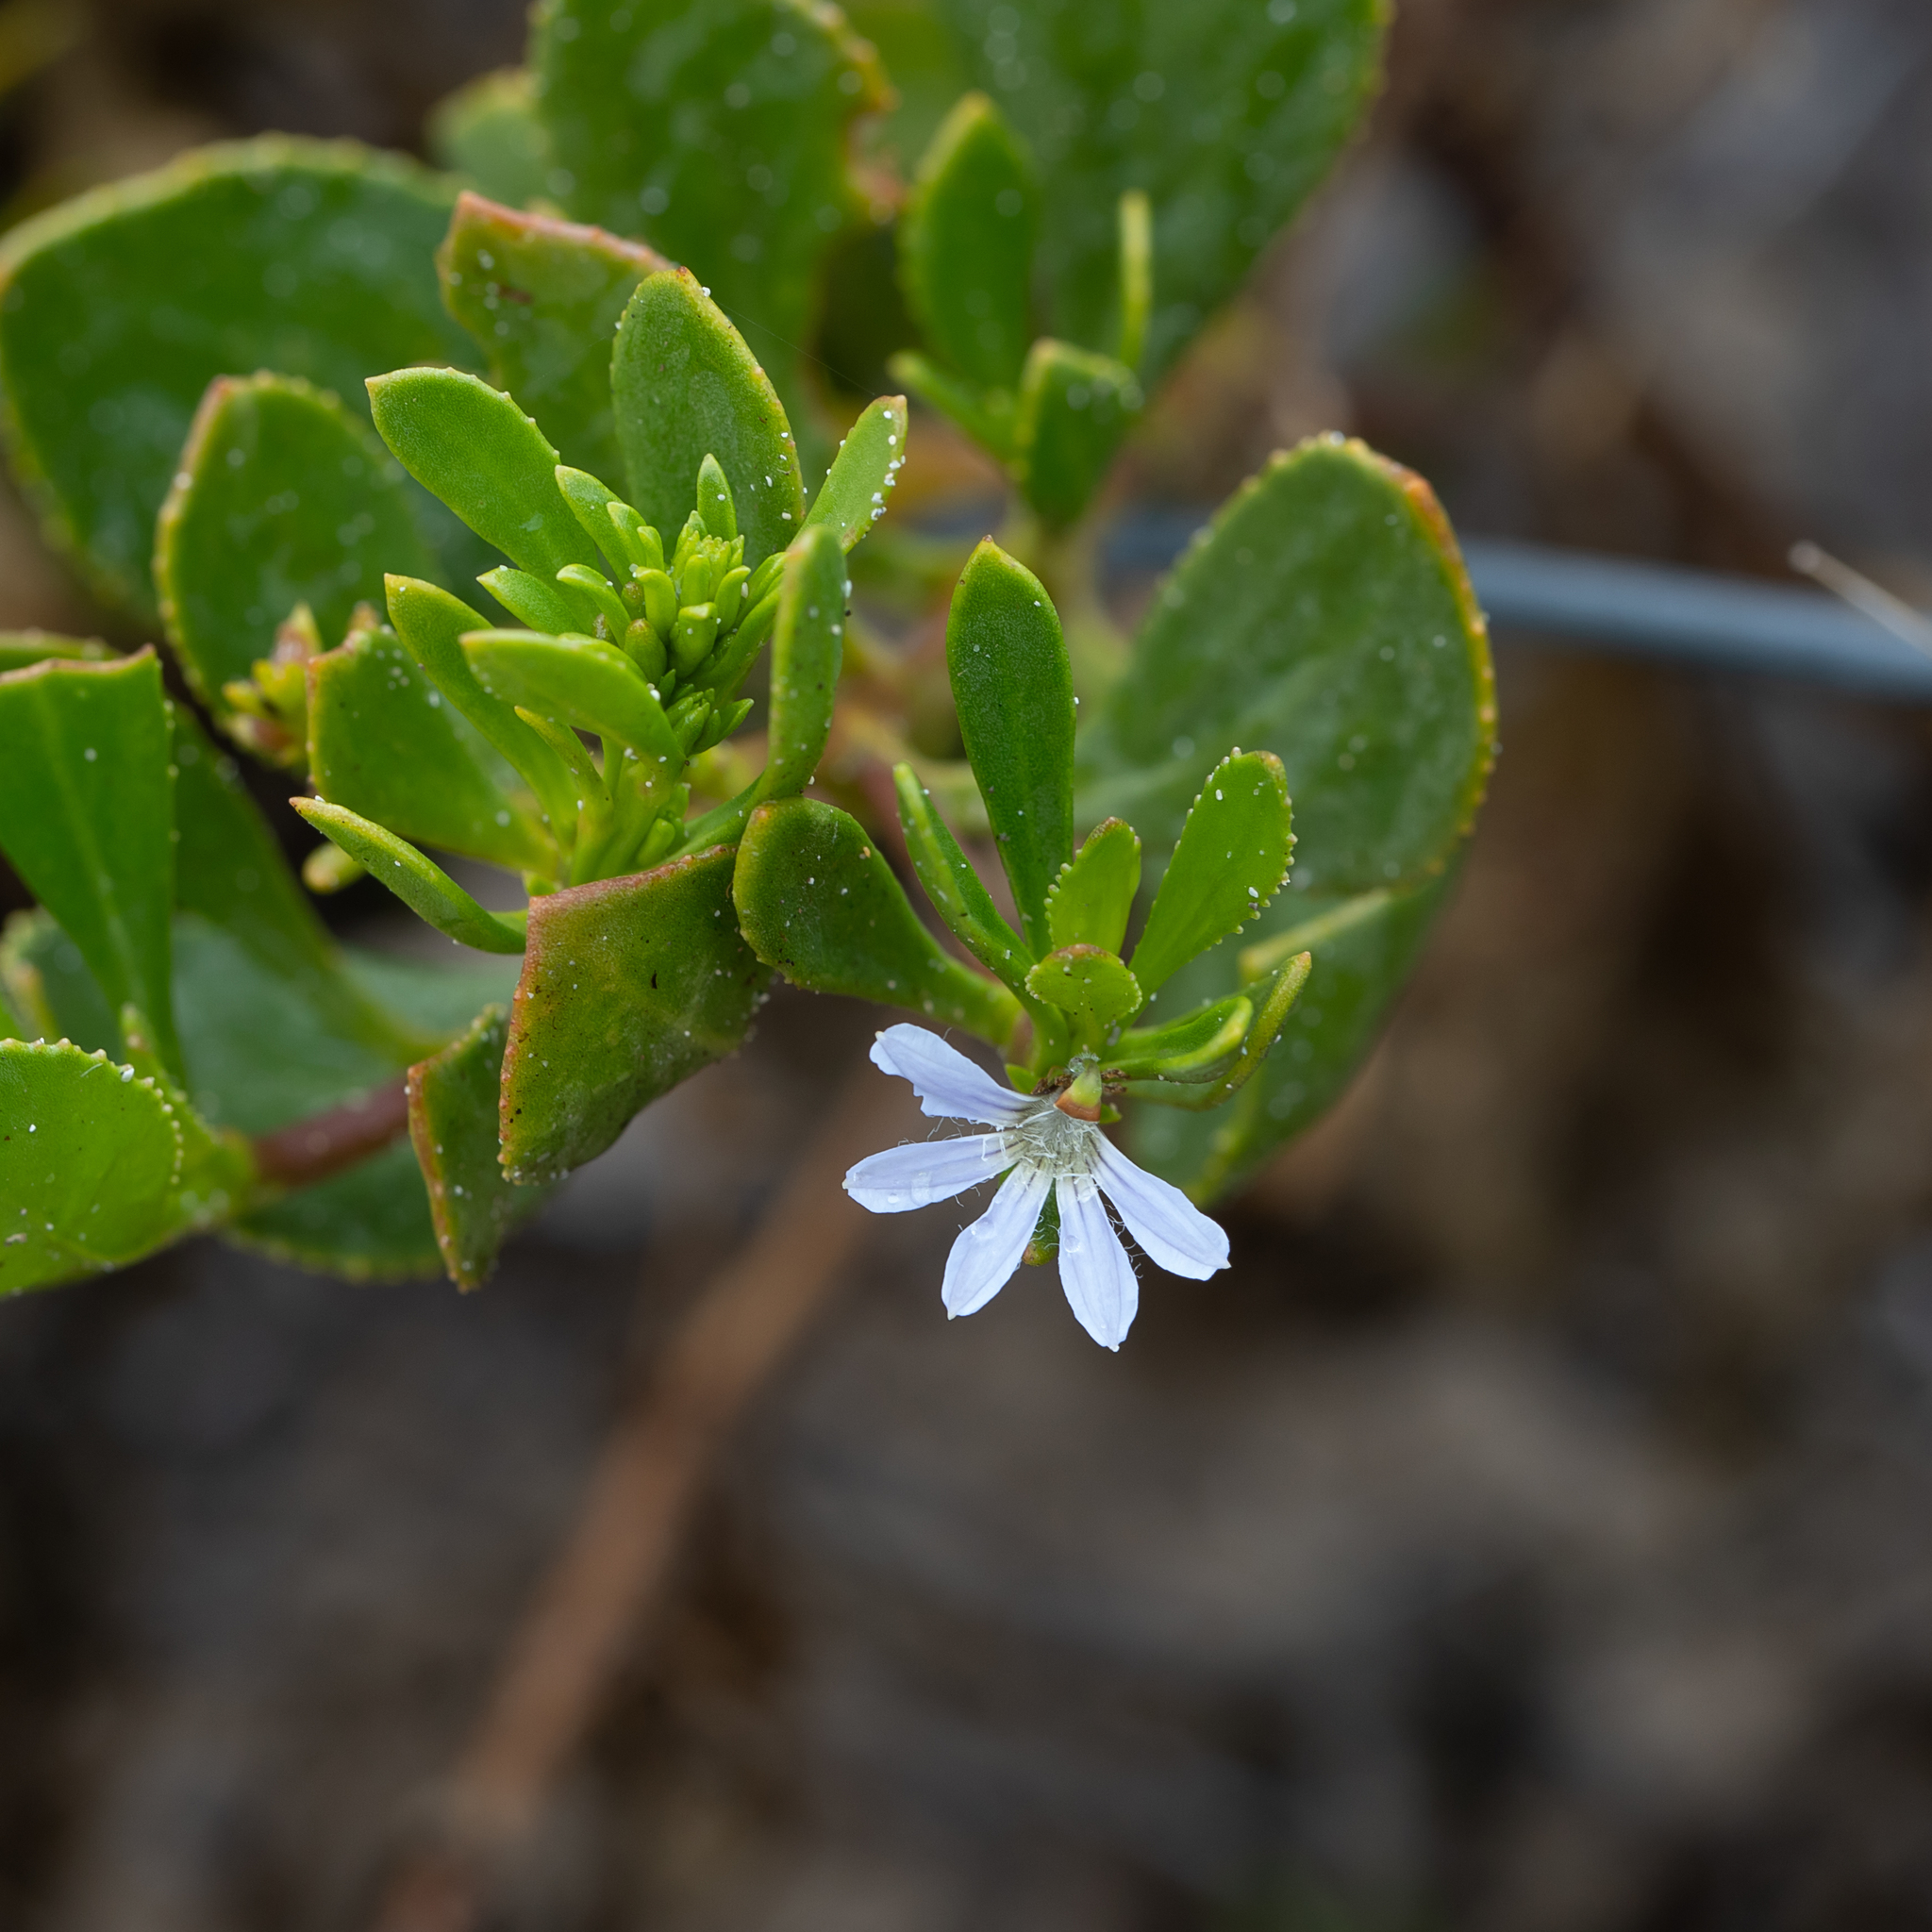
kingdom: Plantae
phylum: Tracheophyta
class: Magnoliopsida
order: Asterales
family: Goodeniaceae
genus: Scaevola
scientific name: Scaevola crassifolia
